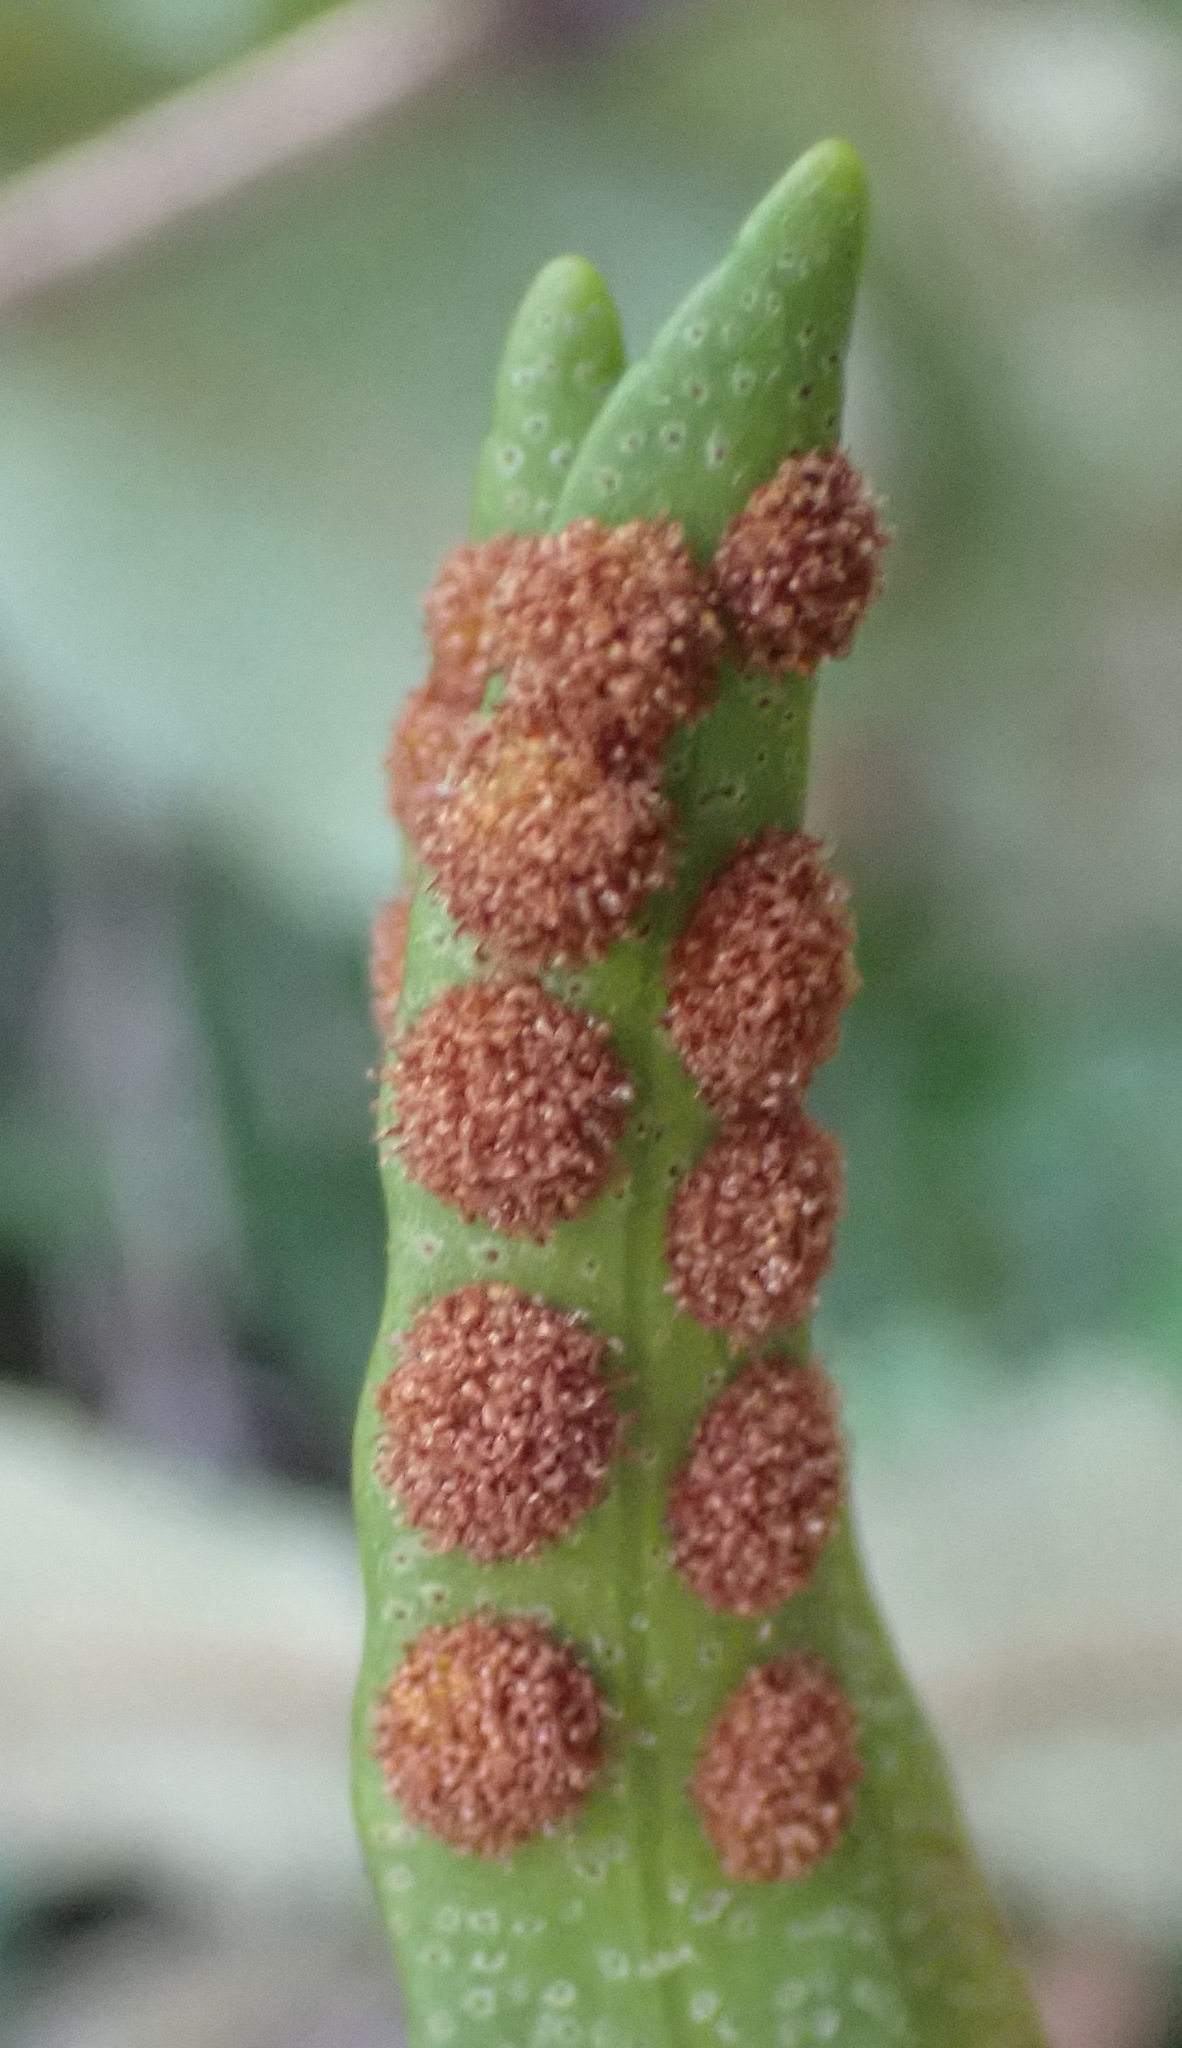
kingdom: Plantae
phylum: Tracheophyta
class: Polypodiopsida
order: Polypodiales
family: Polypodiaceae
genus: Pleopeltis
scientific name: Pleopeltis macrocarpa
